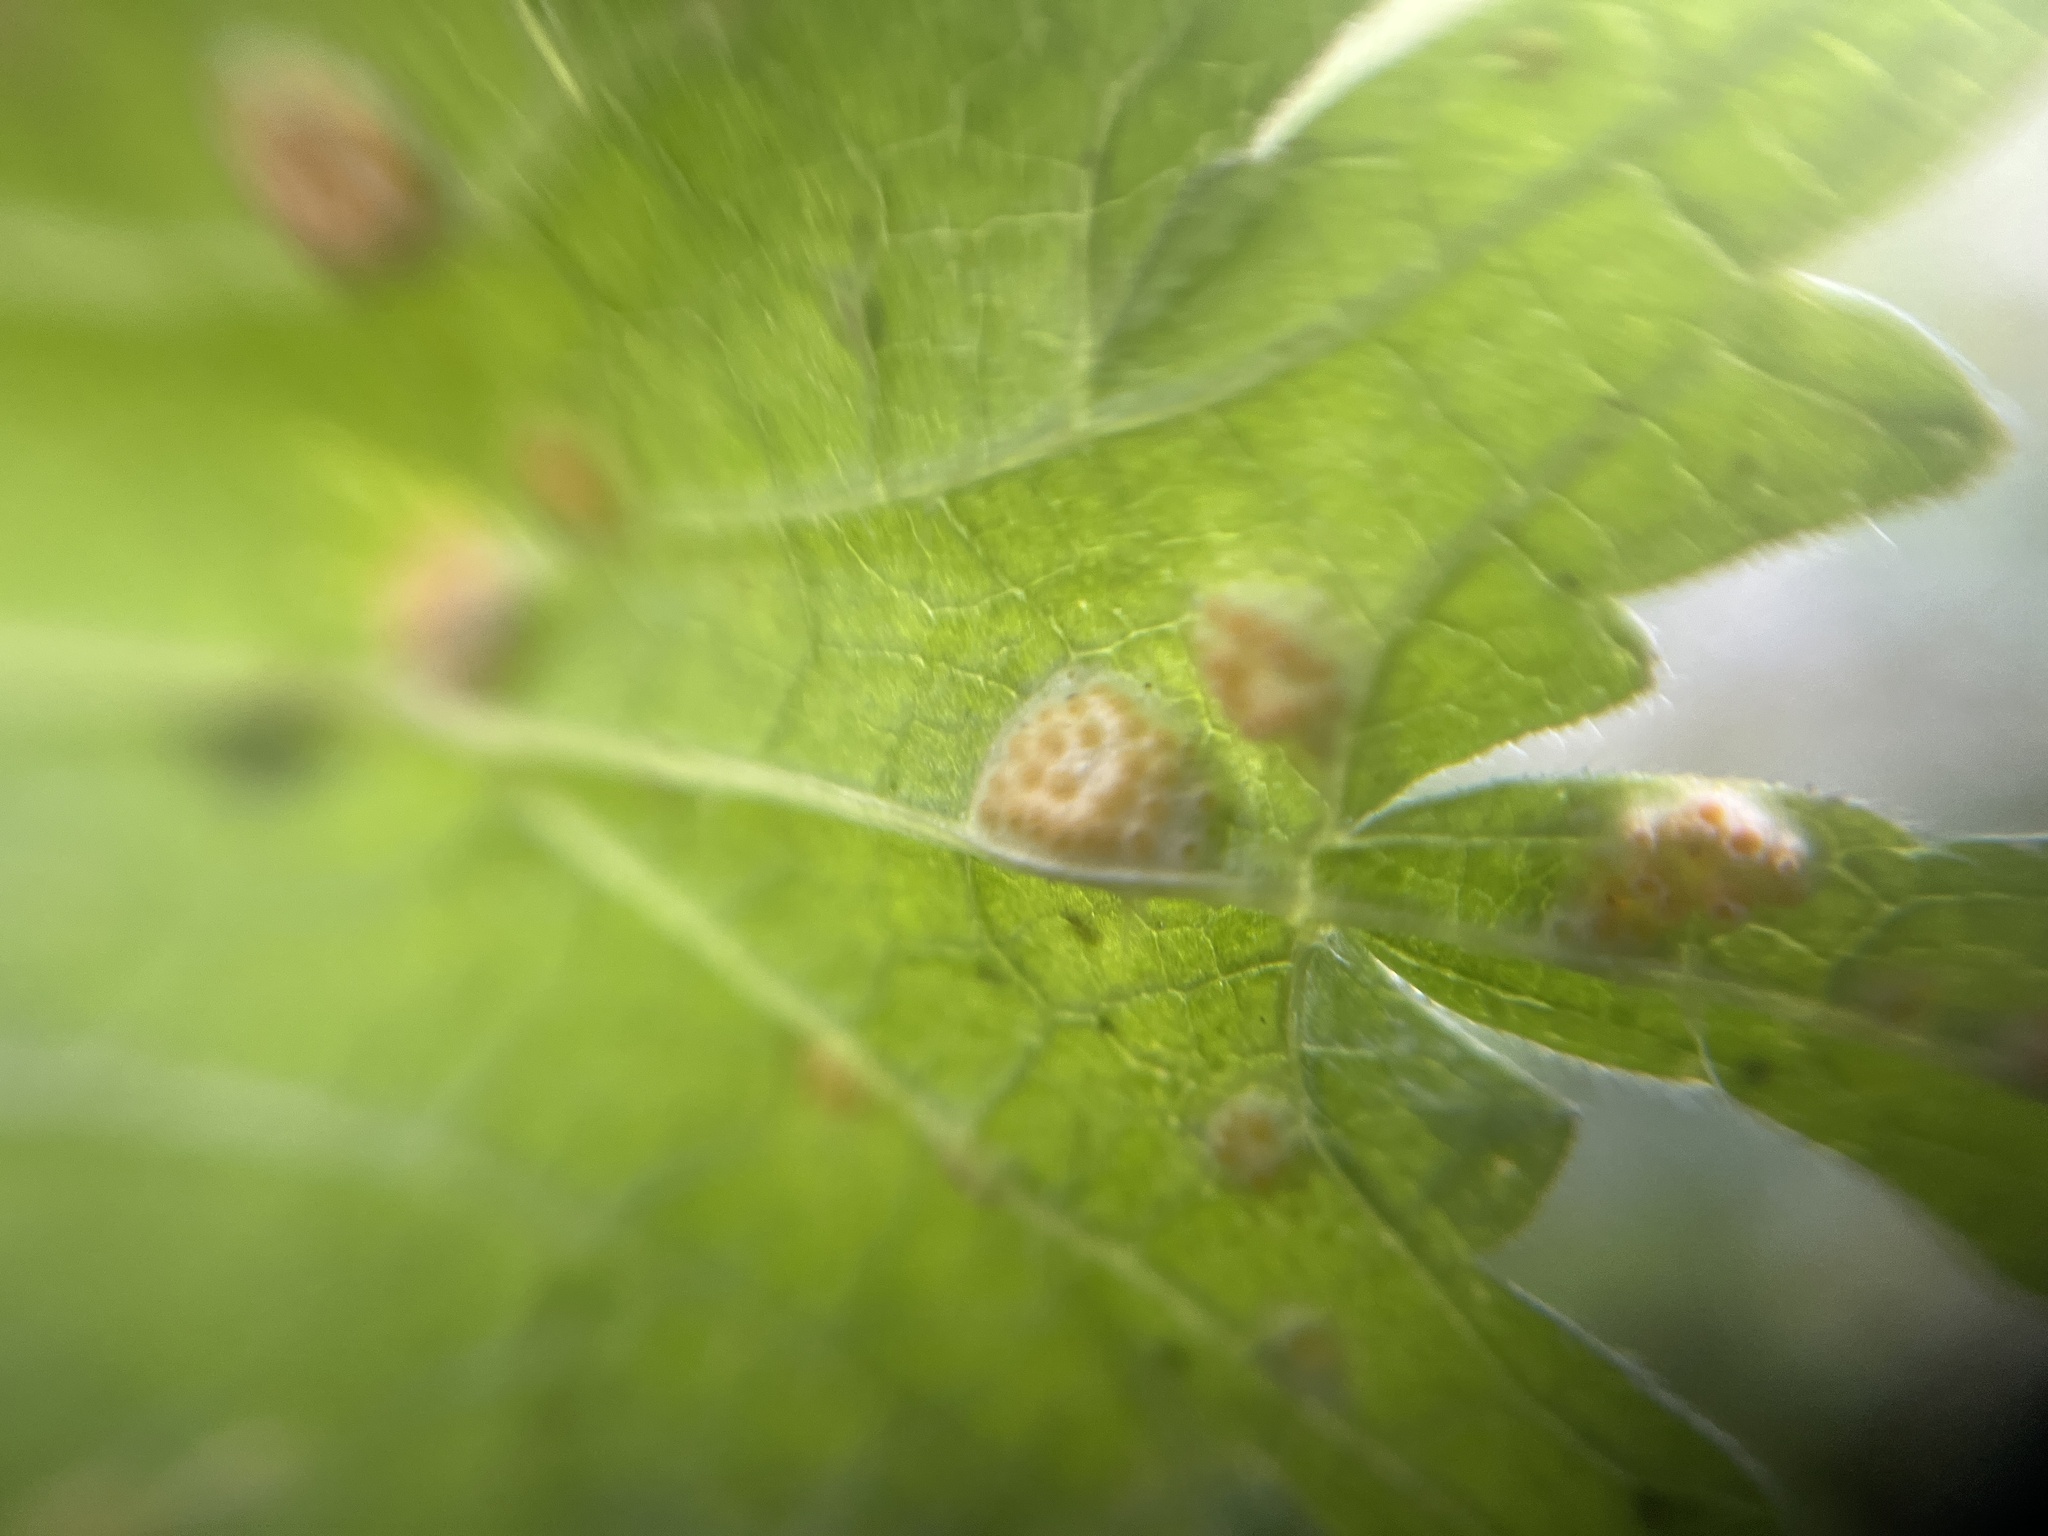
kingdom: Fungi
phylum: Basidiomycota
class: Pucciniomycetes
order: Pucciniales
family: Pucciniaceae
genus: Puccinia
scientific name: Puccinia urticata
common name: Nettle clustercup rust fungus
